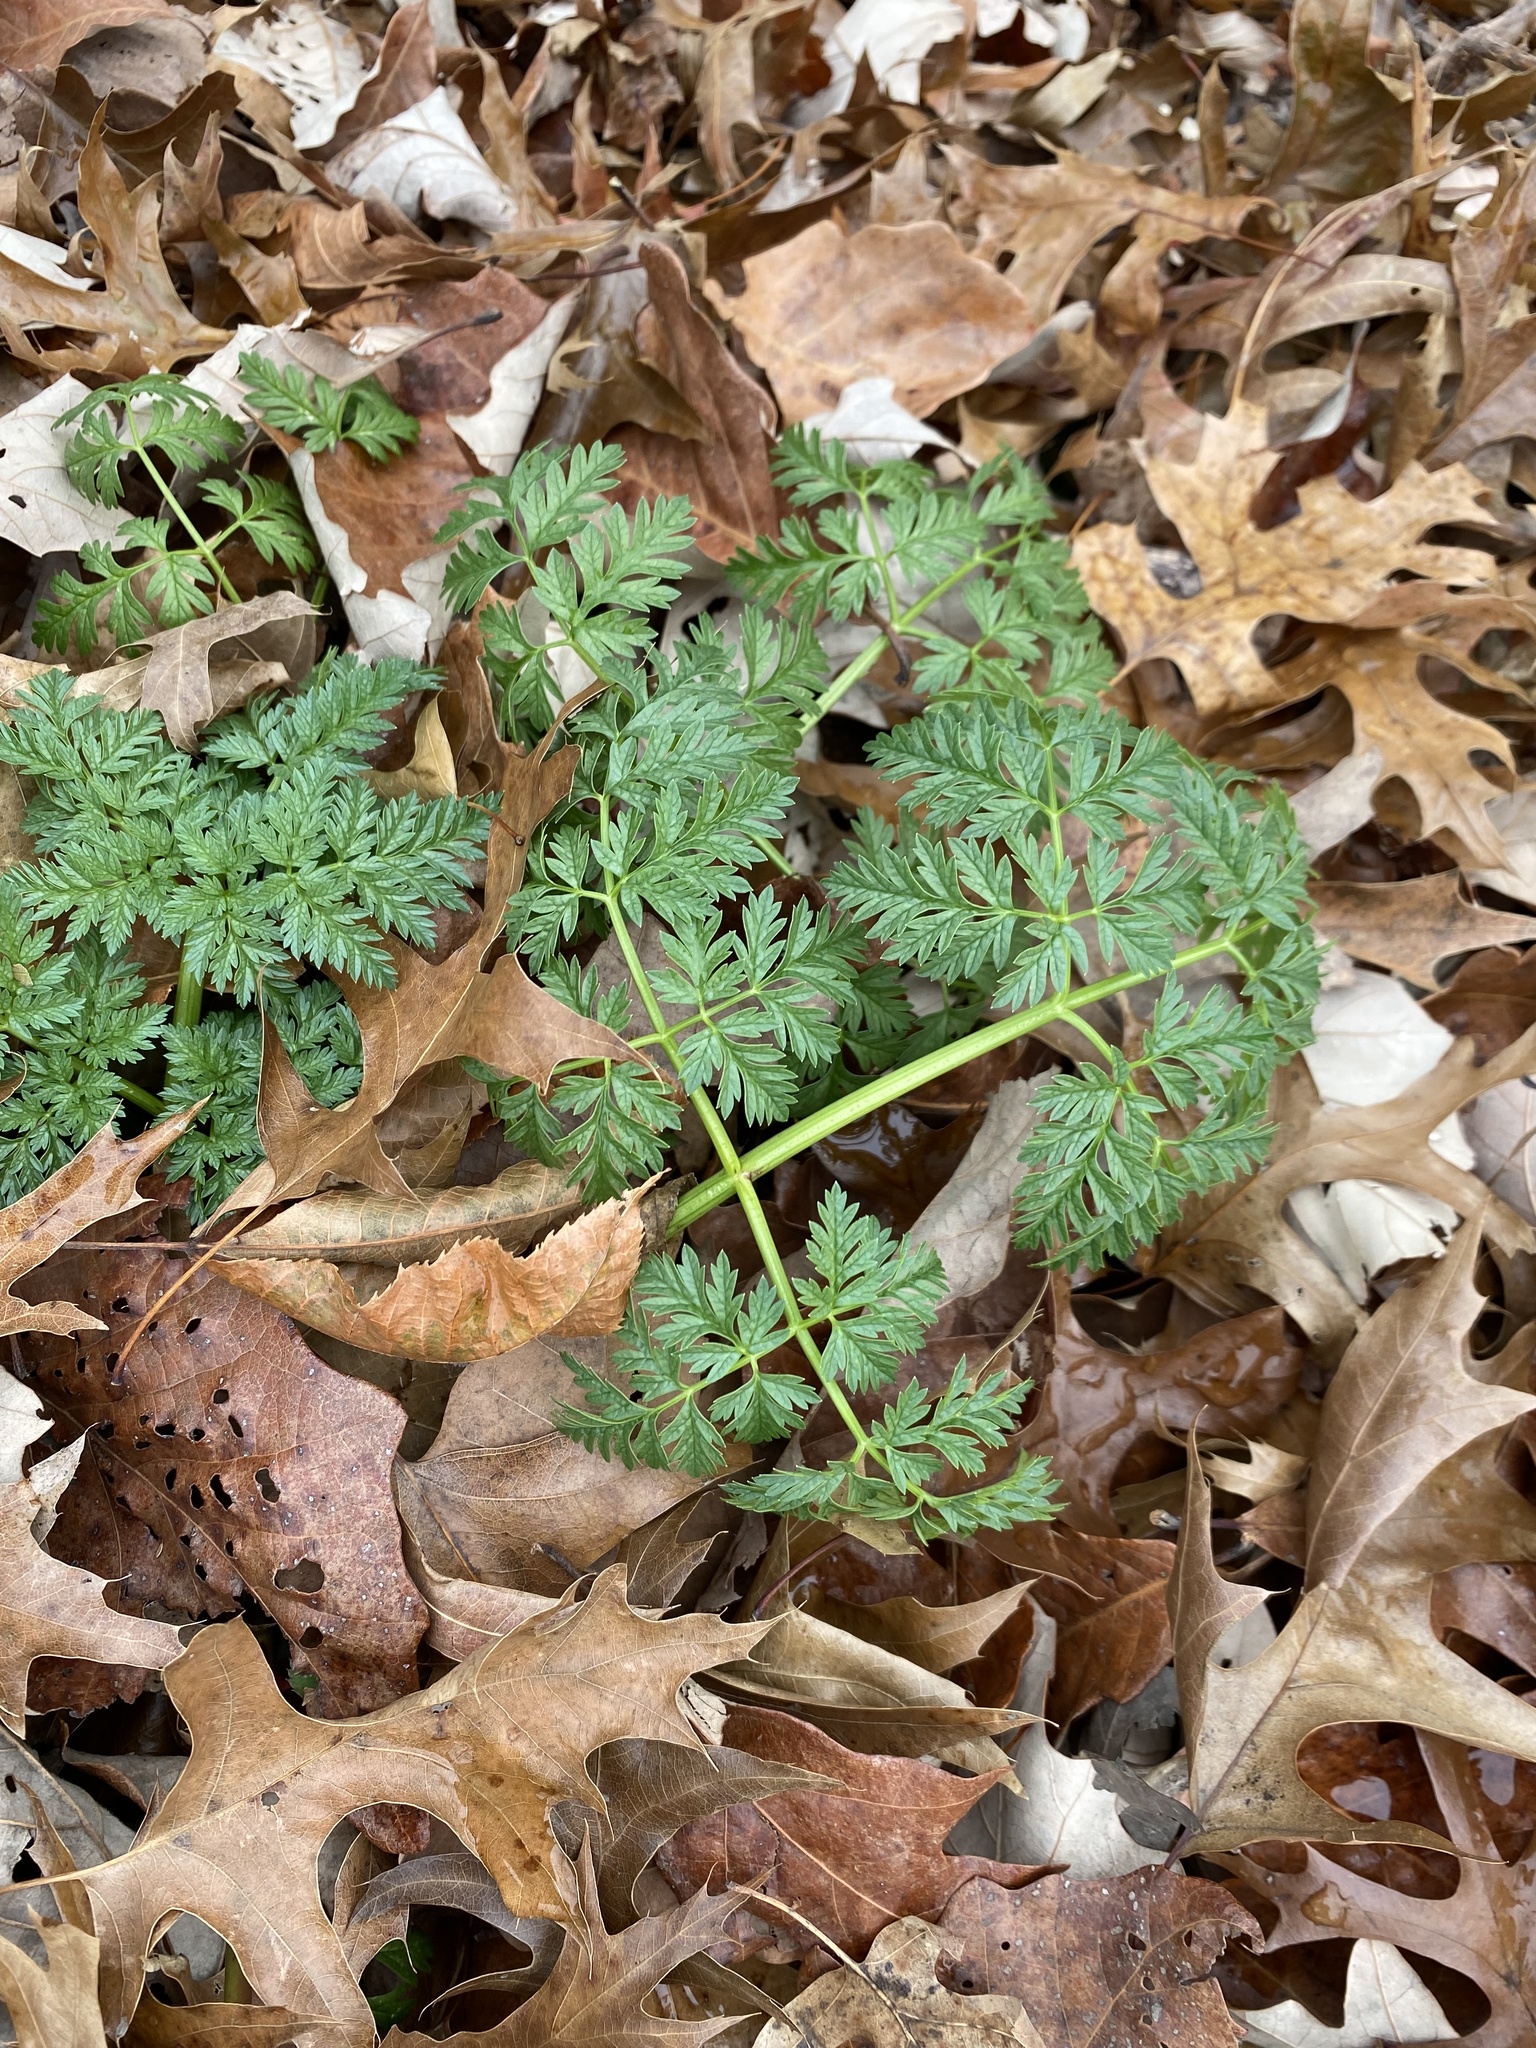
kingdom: Plantae
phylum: Tracheophyta
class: Magnoliopsida
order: Apiales
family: Apiaceae
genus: Conium
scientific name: Conium maculatum
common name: Hemlock
